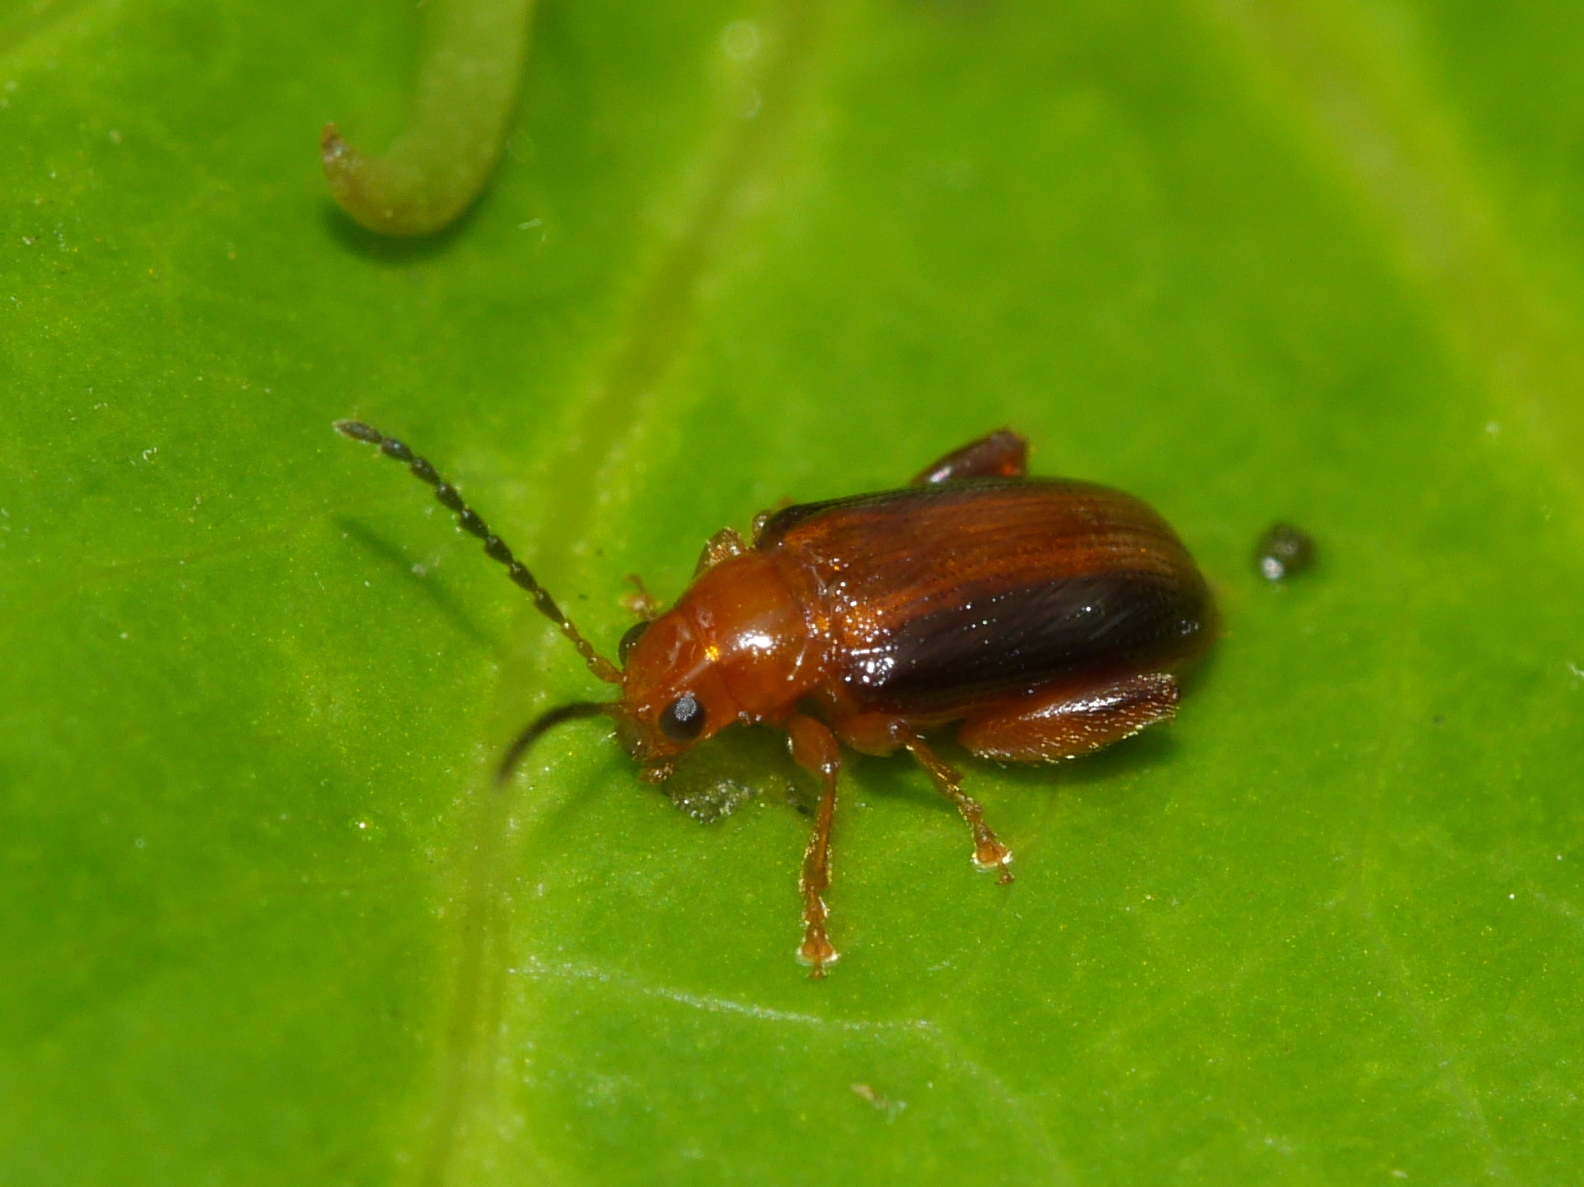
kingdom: Animalia
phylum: Arthropoda
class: Insecta
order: Coleoptera
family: Chrysomelidae
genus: Pachyonychus
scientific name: Pachyonychus paradoxus
